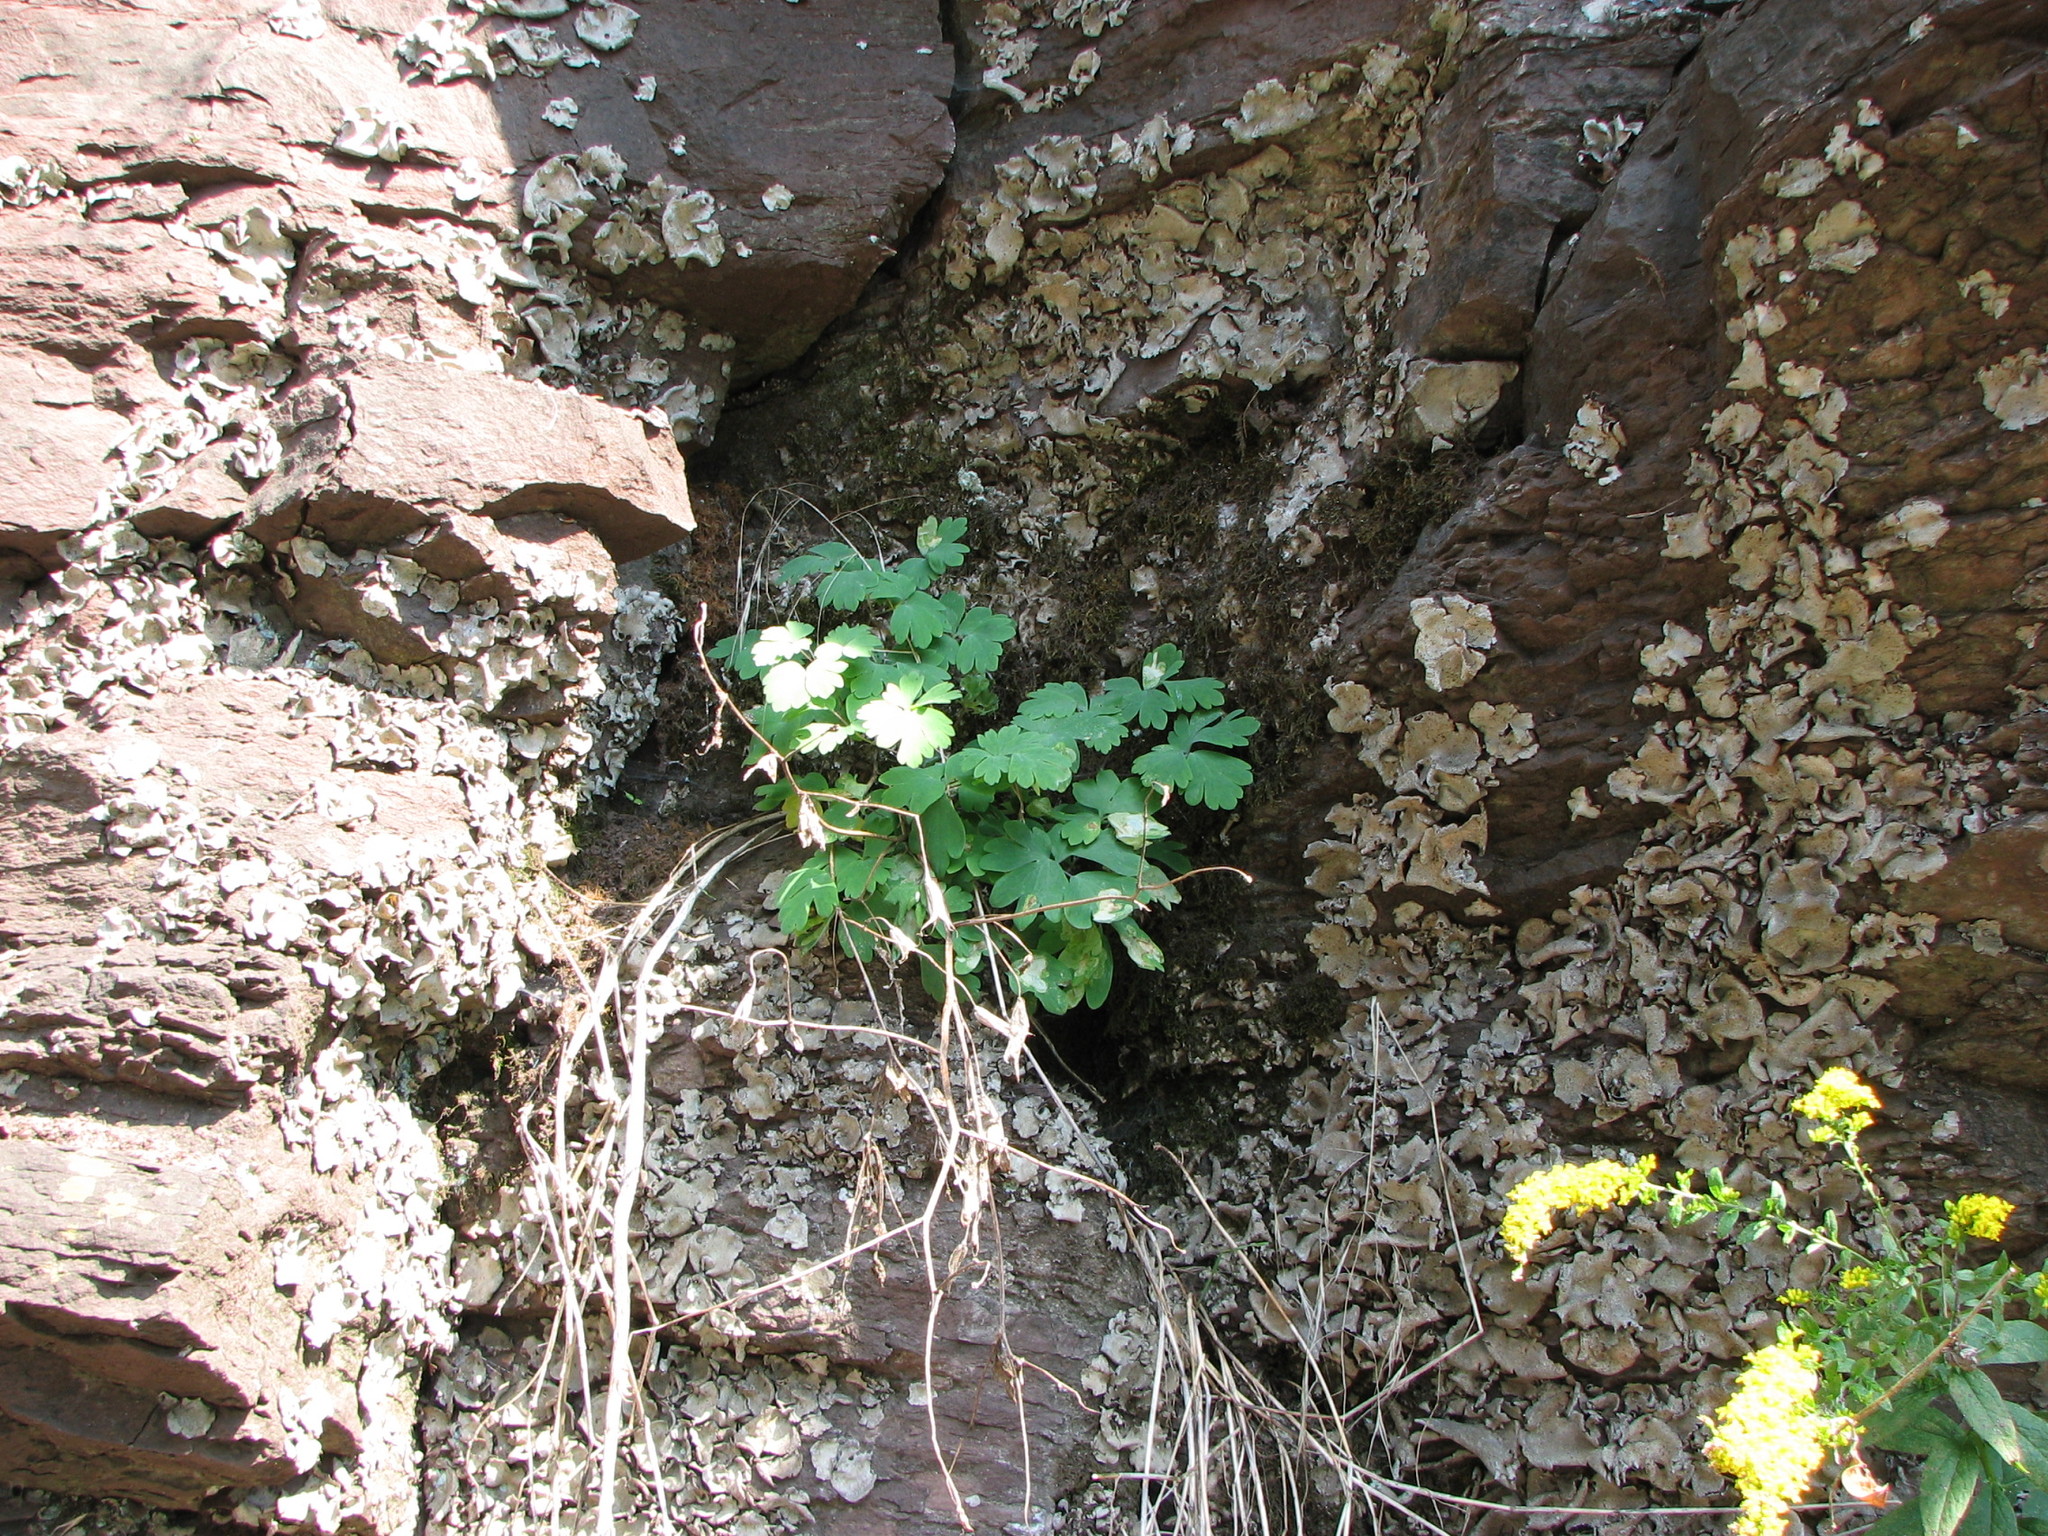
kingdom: Plantae
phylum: Tracheophyta
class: Magnoliopsida
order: Ranunculales
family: Ranunculaceae
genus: Aquilegia
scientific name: Aquilegia canadensis
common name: American columbine
